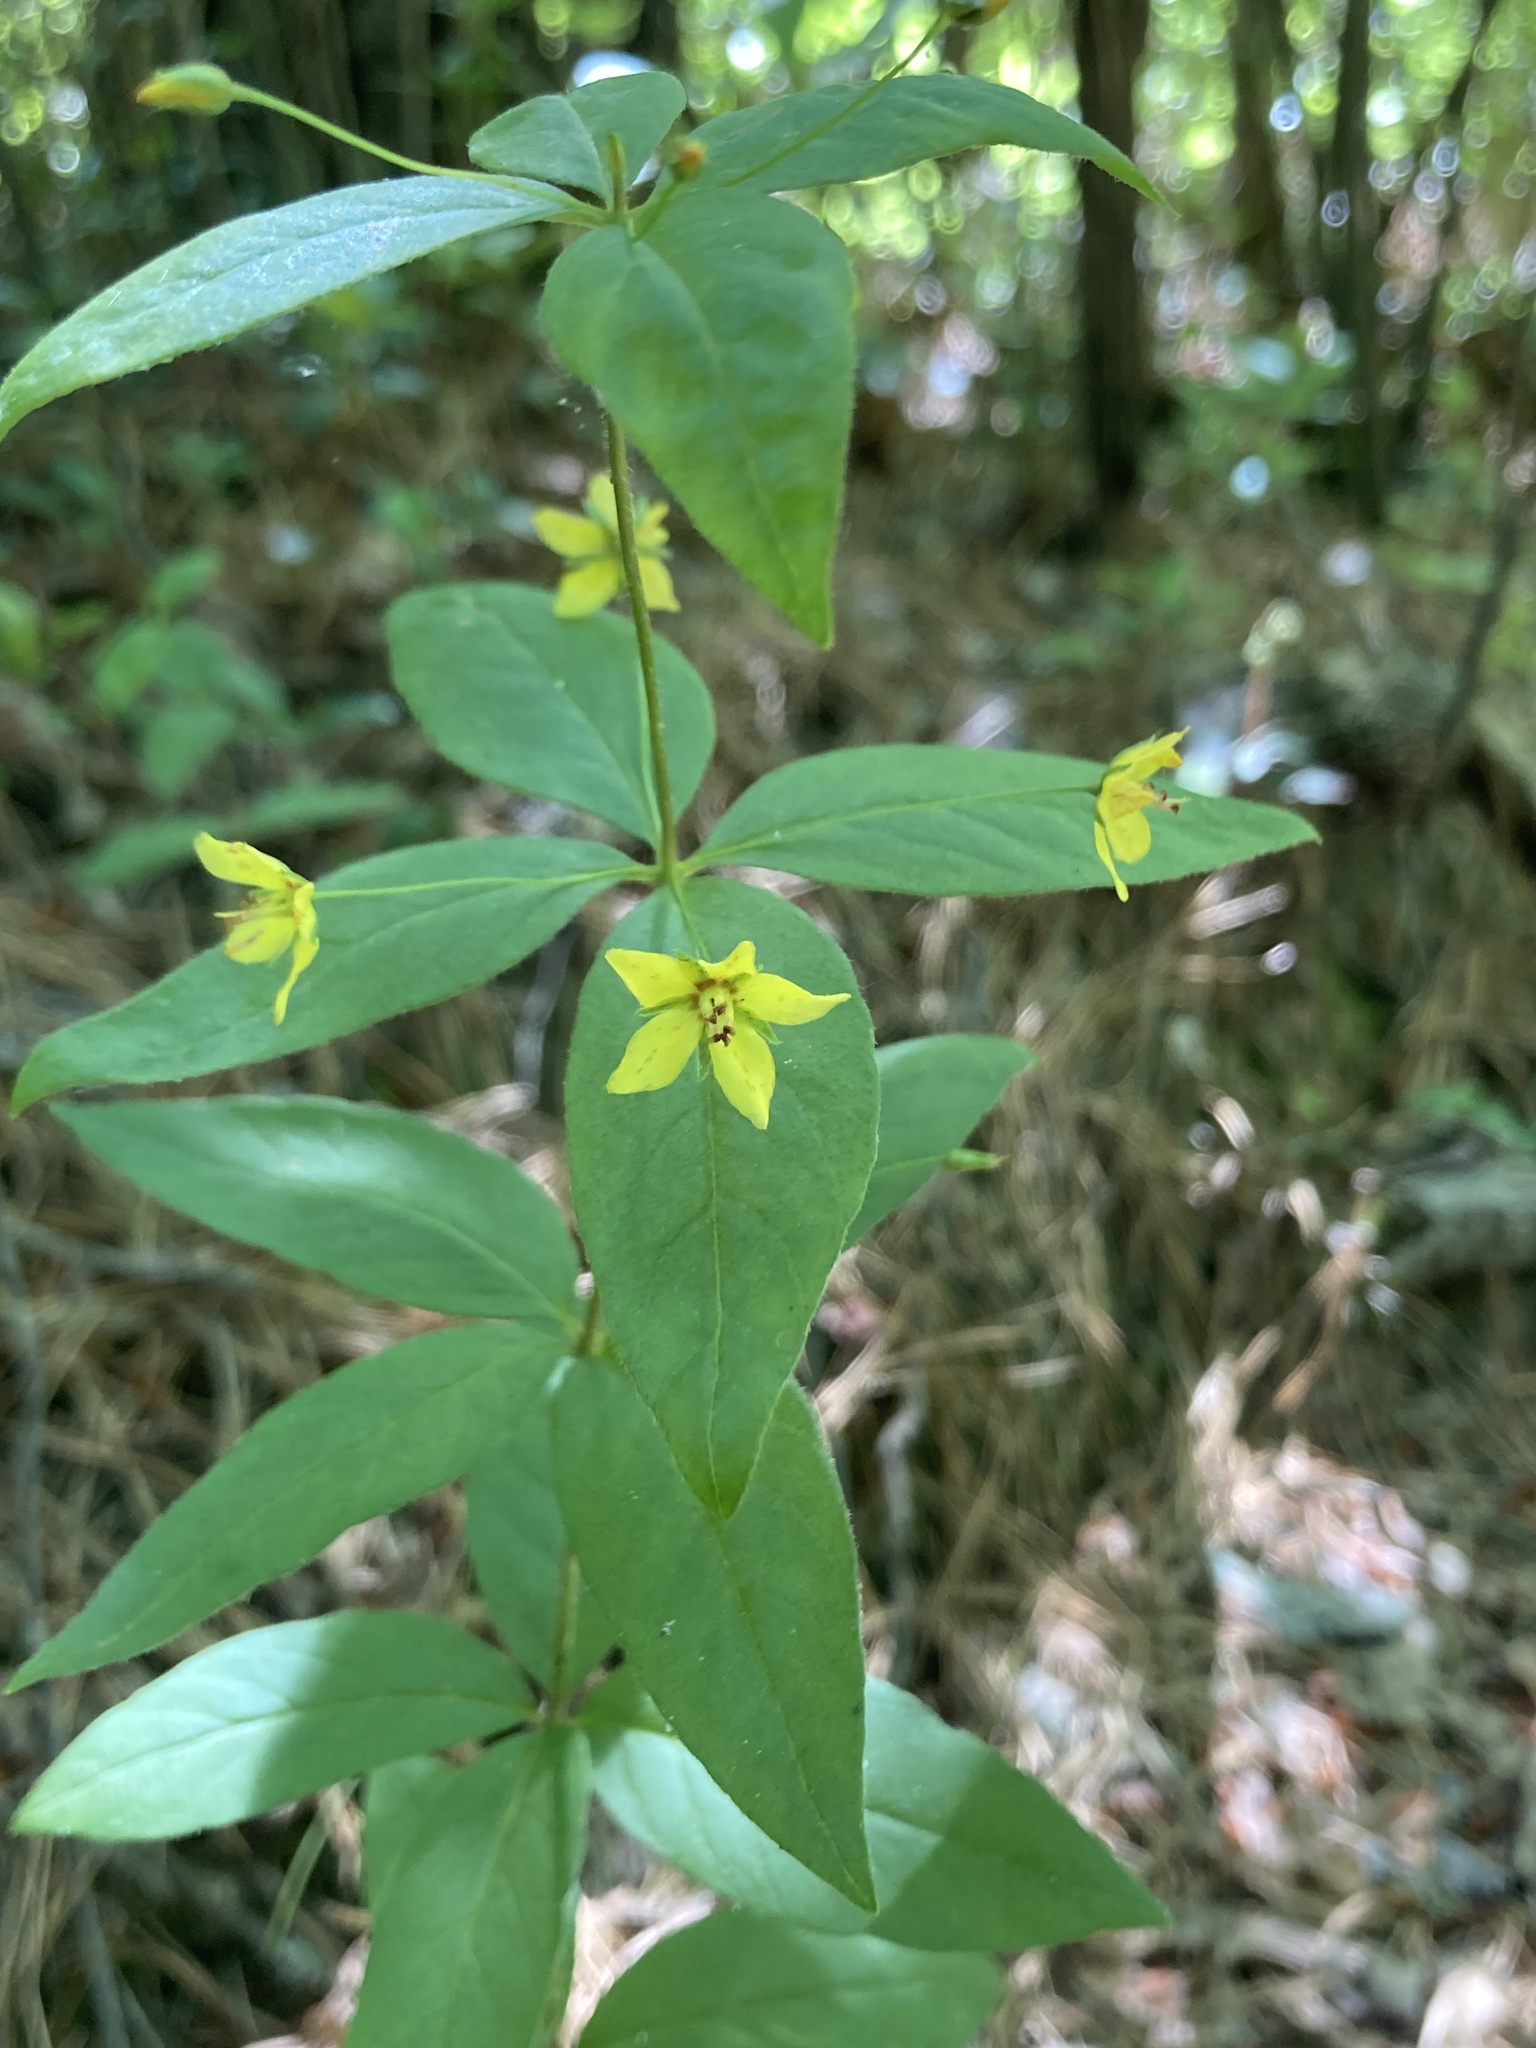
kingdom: Plantae
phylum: Tracheophyta
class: Magnoliopsida
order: Ericales
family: Primulaceae
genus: Lysimachia
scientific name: Lysimachia quadrifolia
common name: Whorled loosestrife
